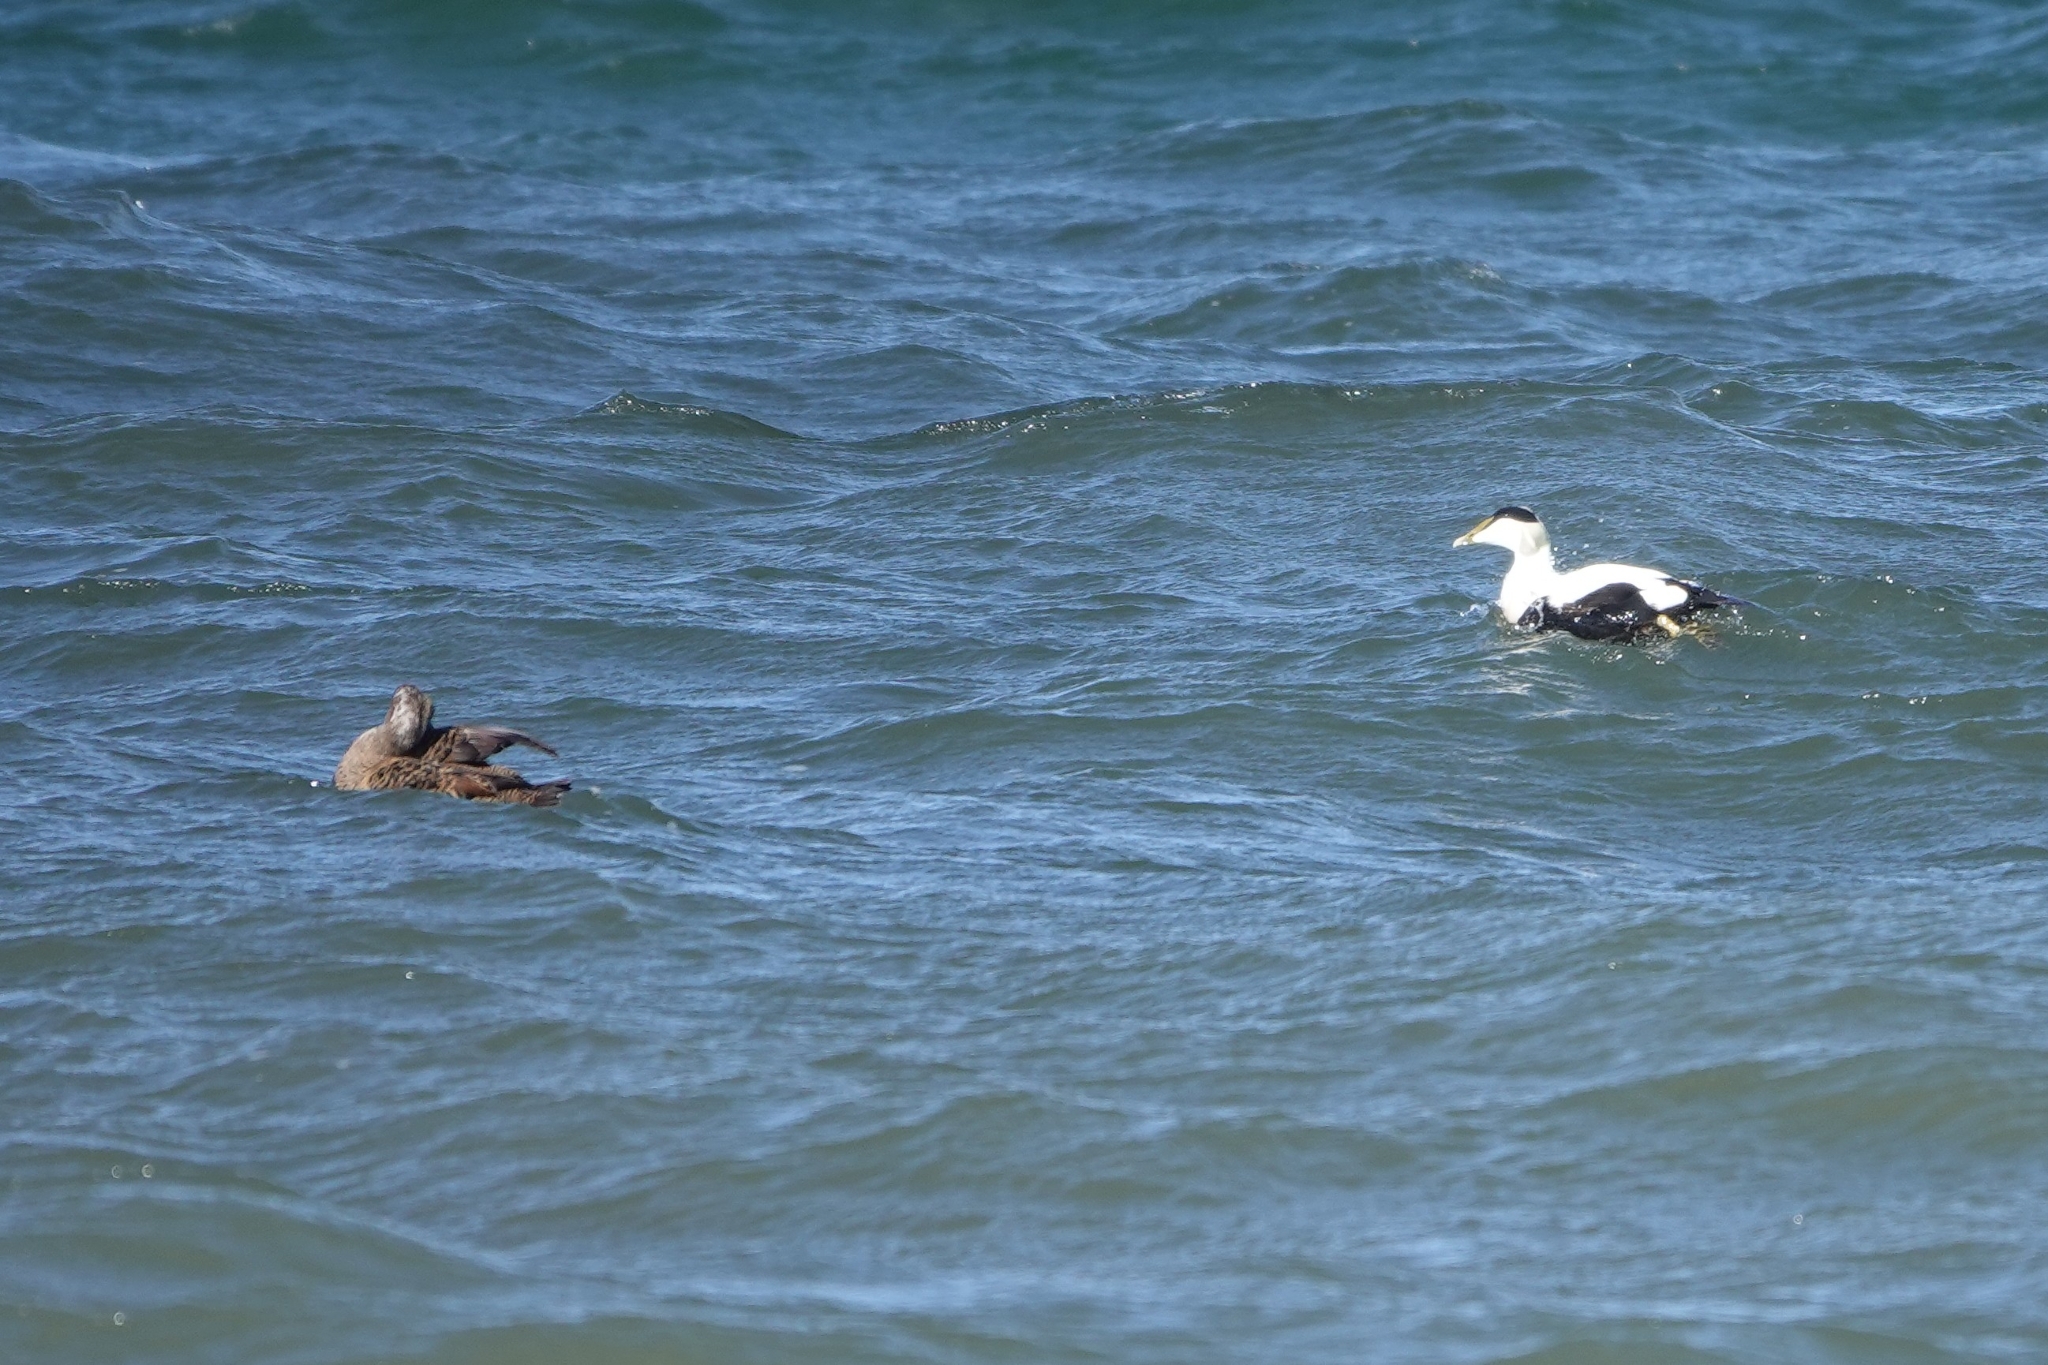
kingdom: Animalia
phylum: Chordata
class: Aves
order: Anseriformes
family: Anatidae
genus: Somateria
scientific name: Somateria mollissima
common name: Common eider
